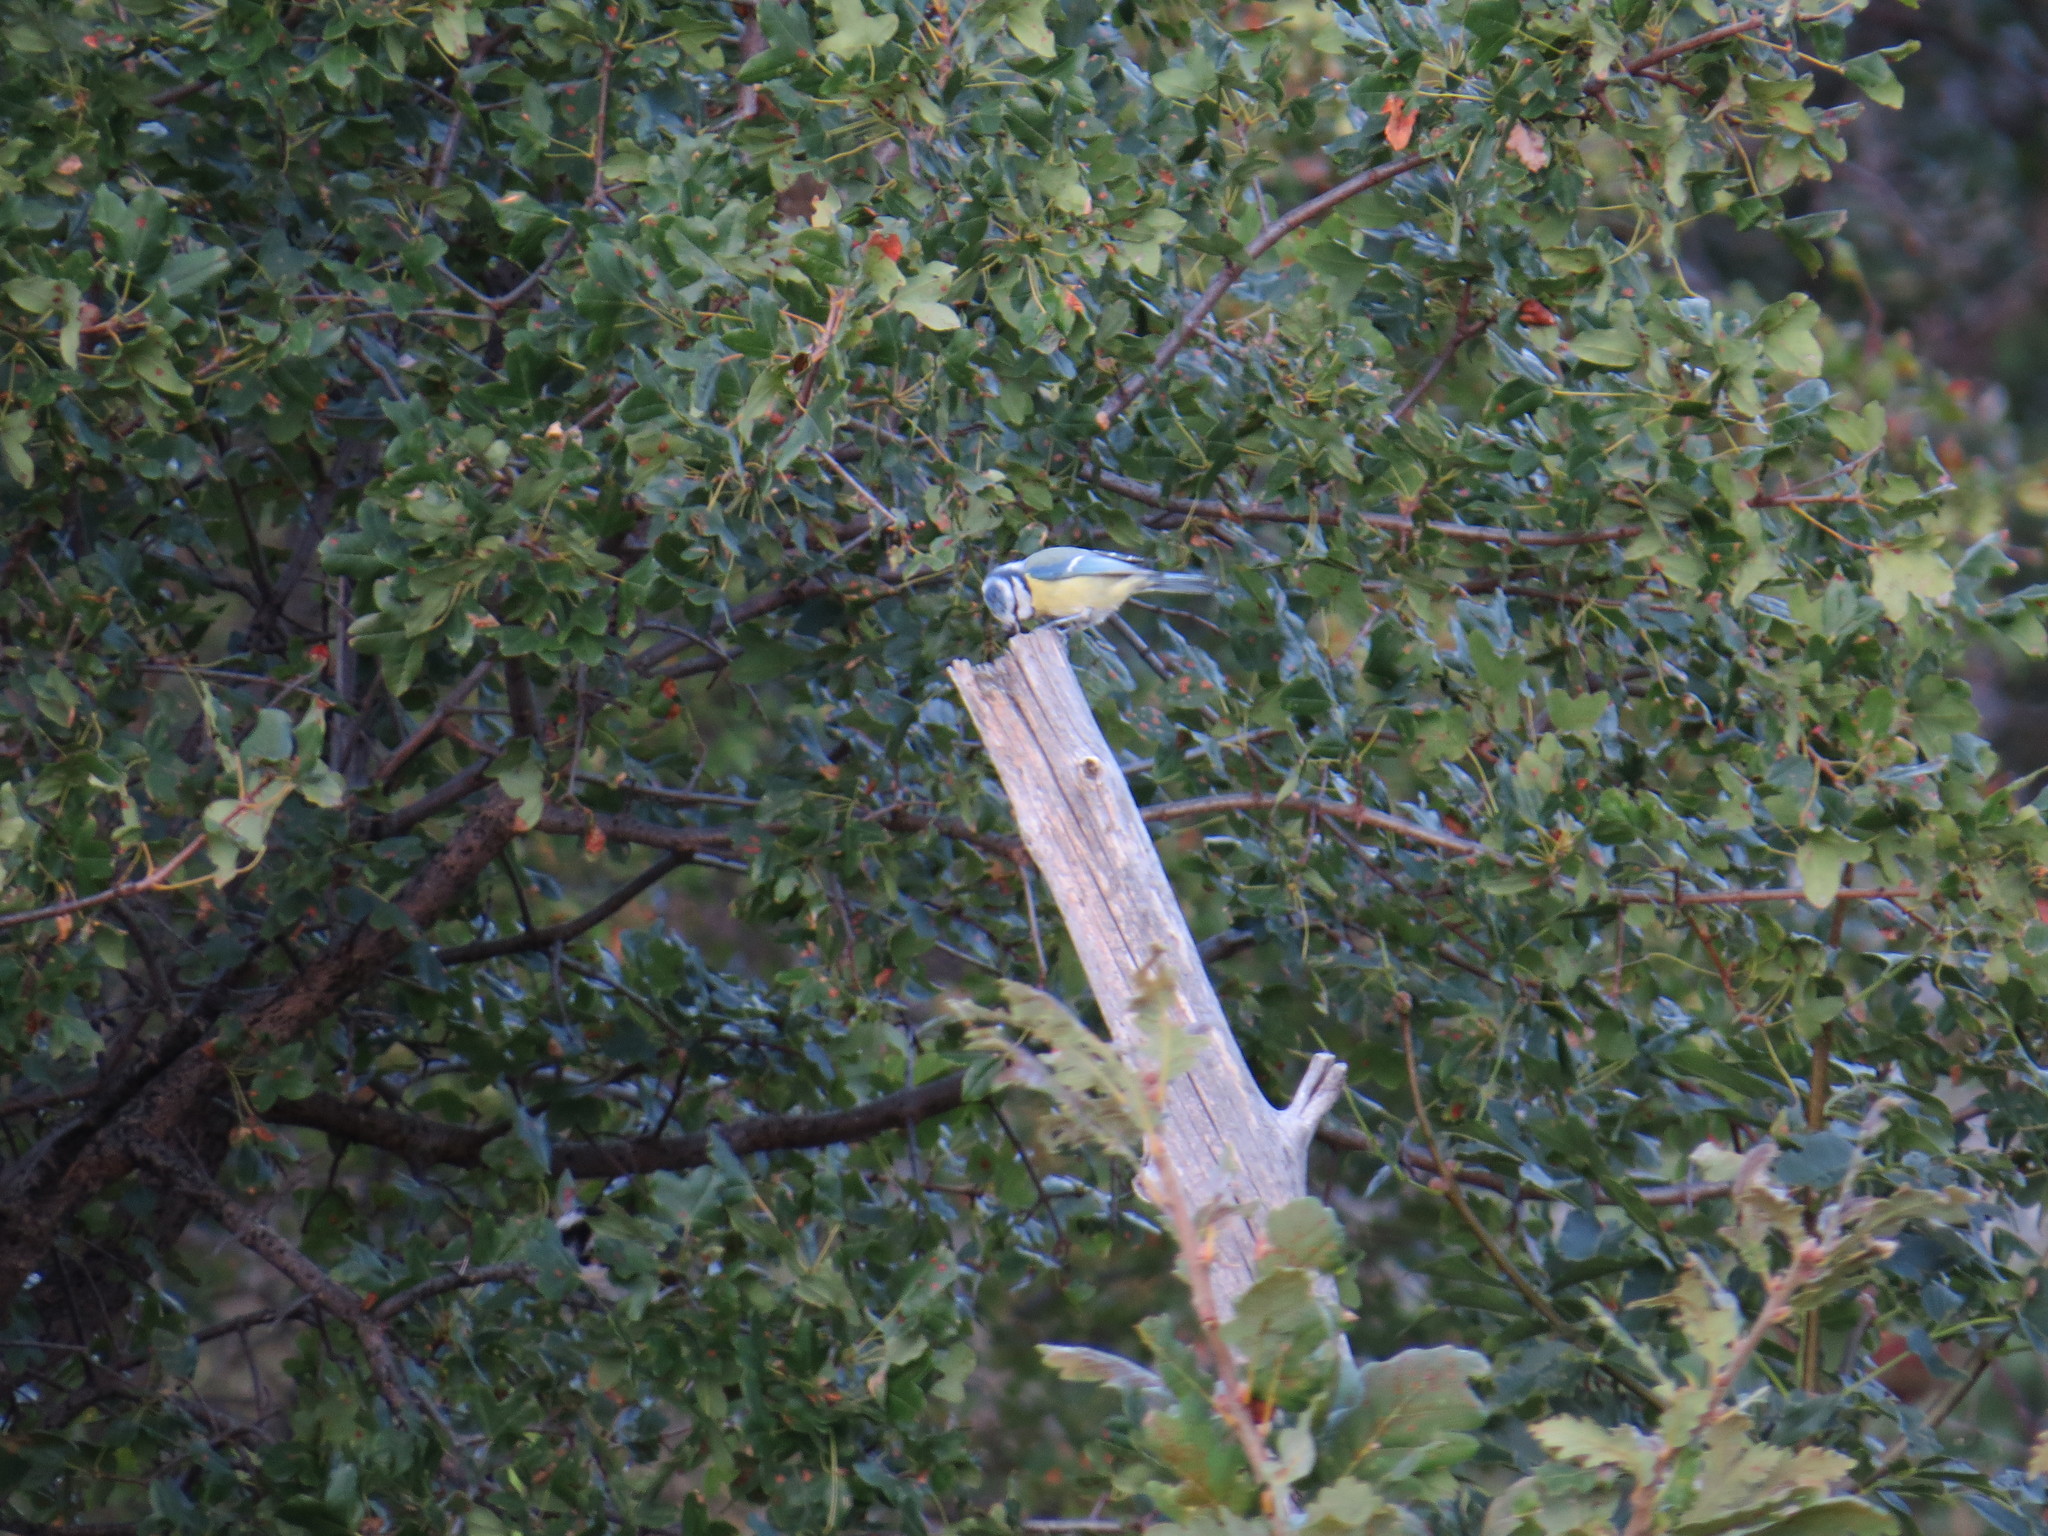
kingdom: Animalia
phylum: Chordata
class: Aves
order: Passeriformes
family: Paridae
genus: Cyanistes
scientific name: Cyanistes caeruleus
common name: Eurasian blue tit
